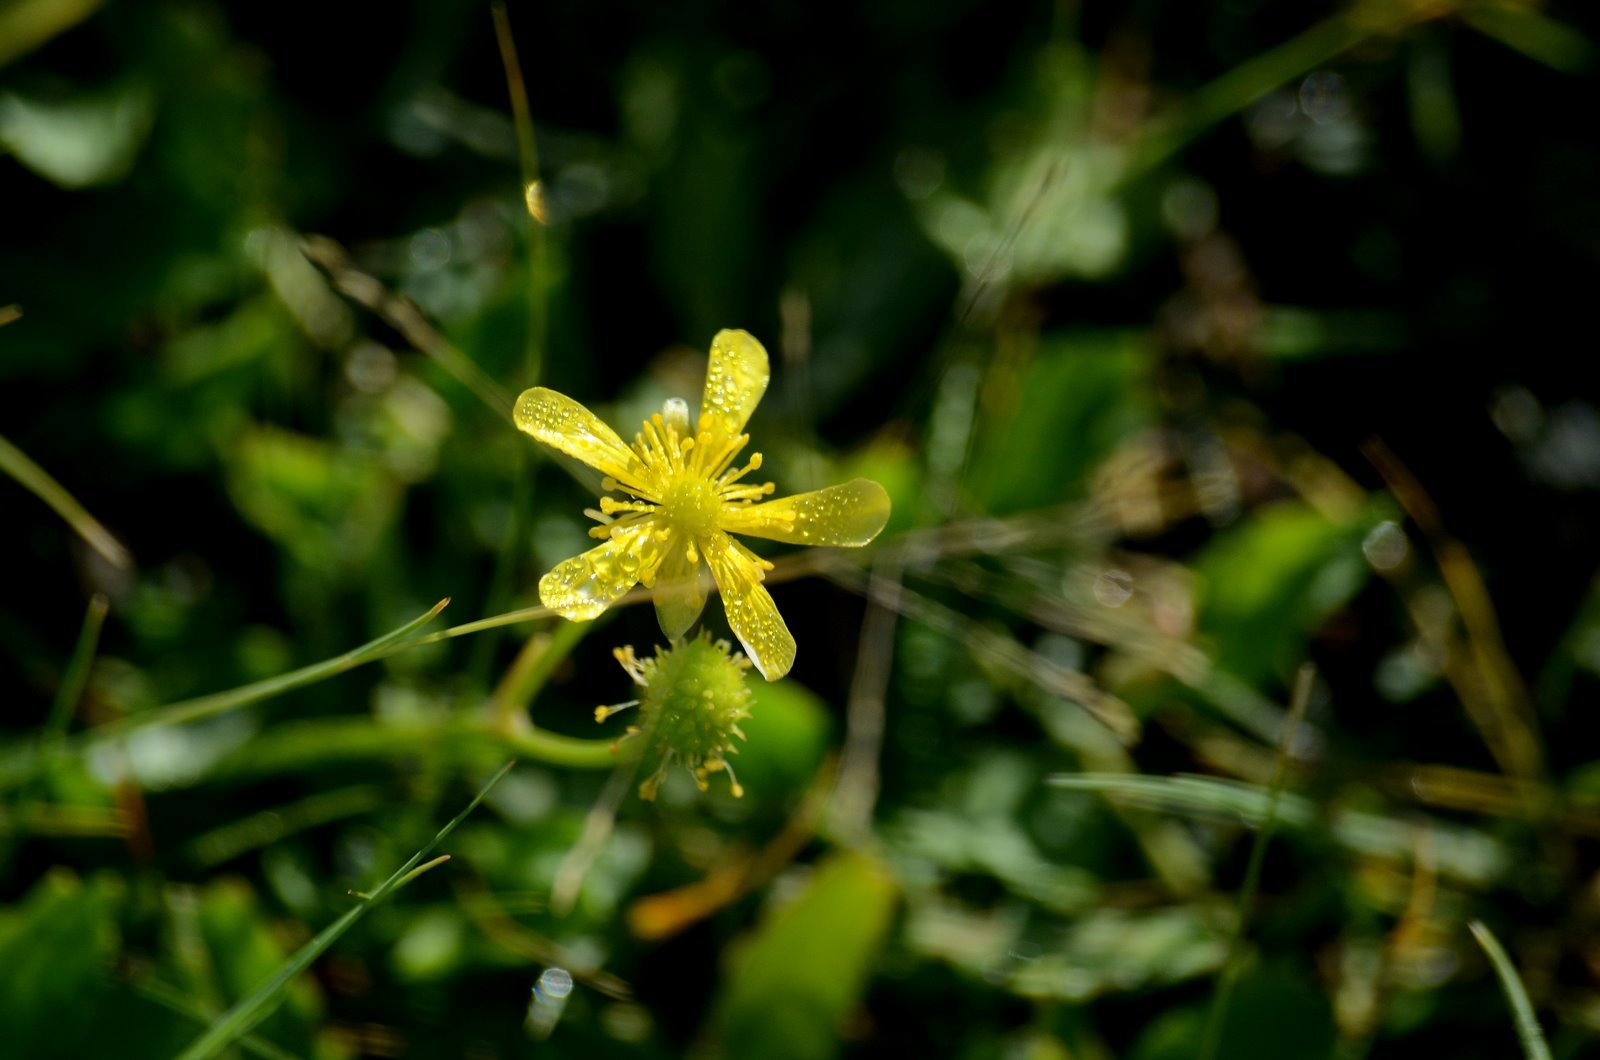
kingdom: Plantae
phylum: Tracheophyta
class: Magnoliopsida
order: Ranunculales
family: Ranunculaceae
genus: Halerpestes
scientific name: Halerpestes sarmentosus
